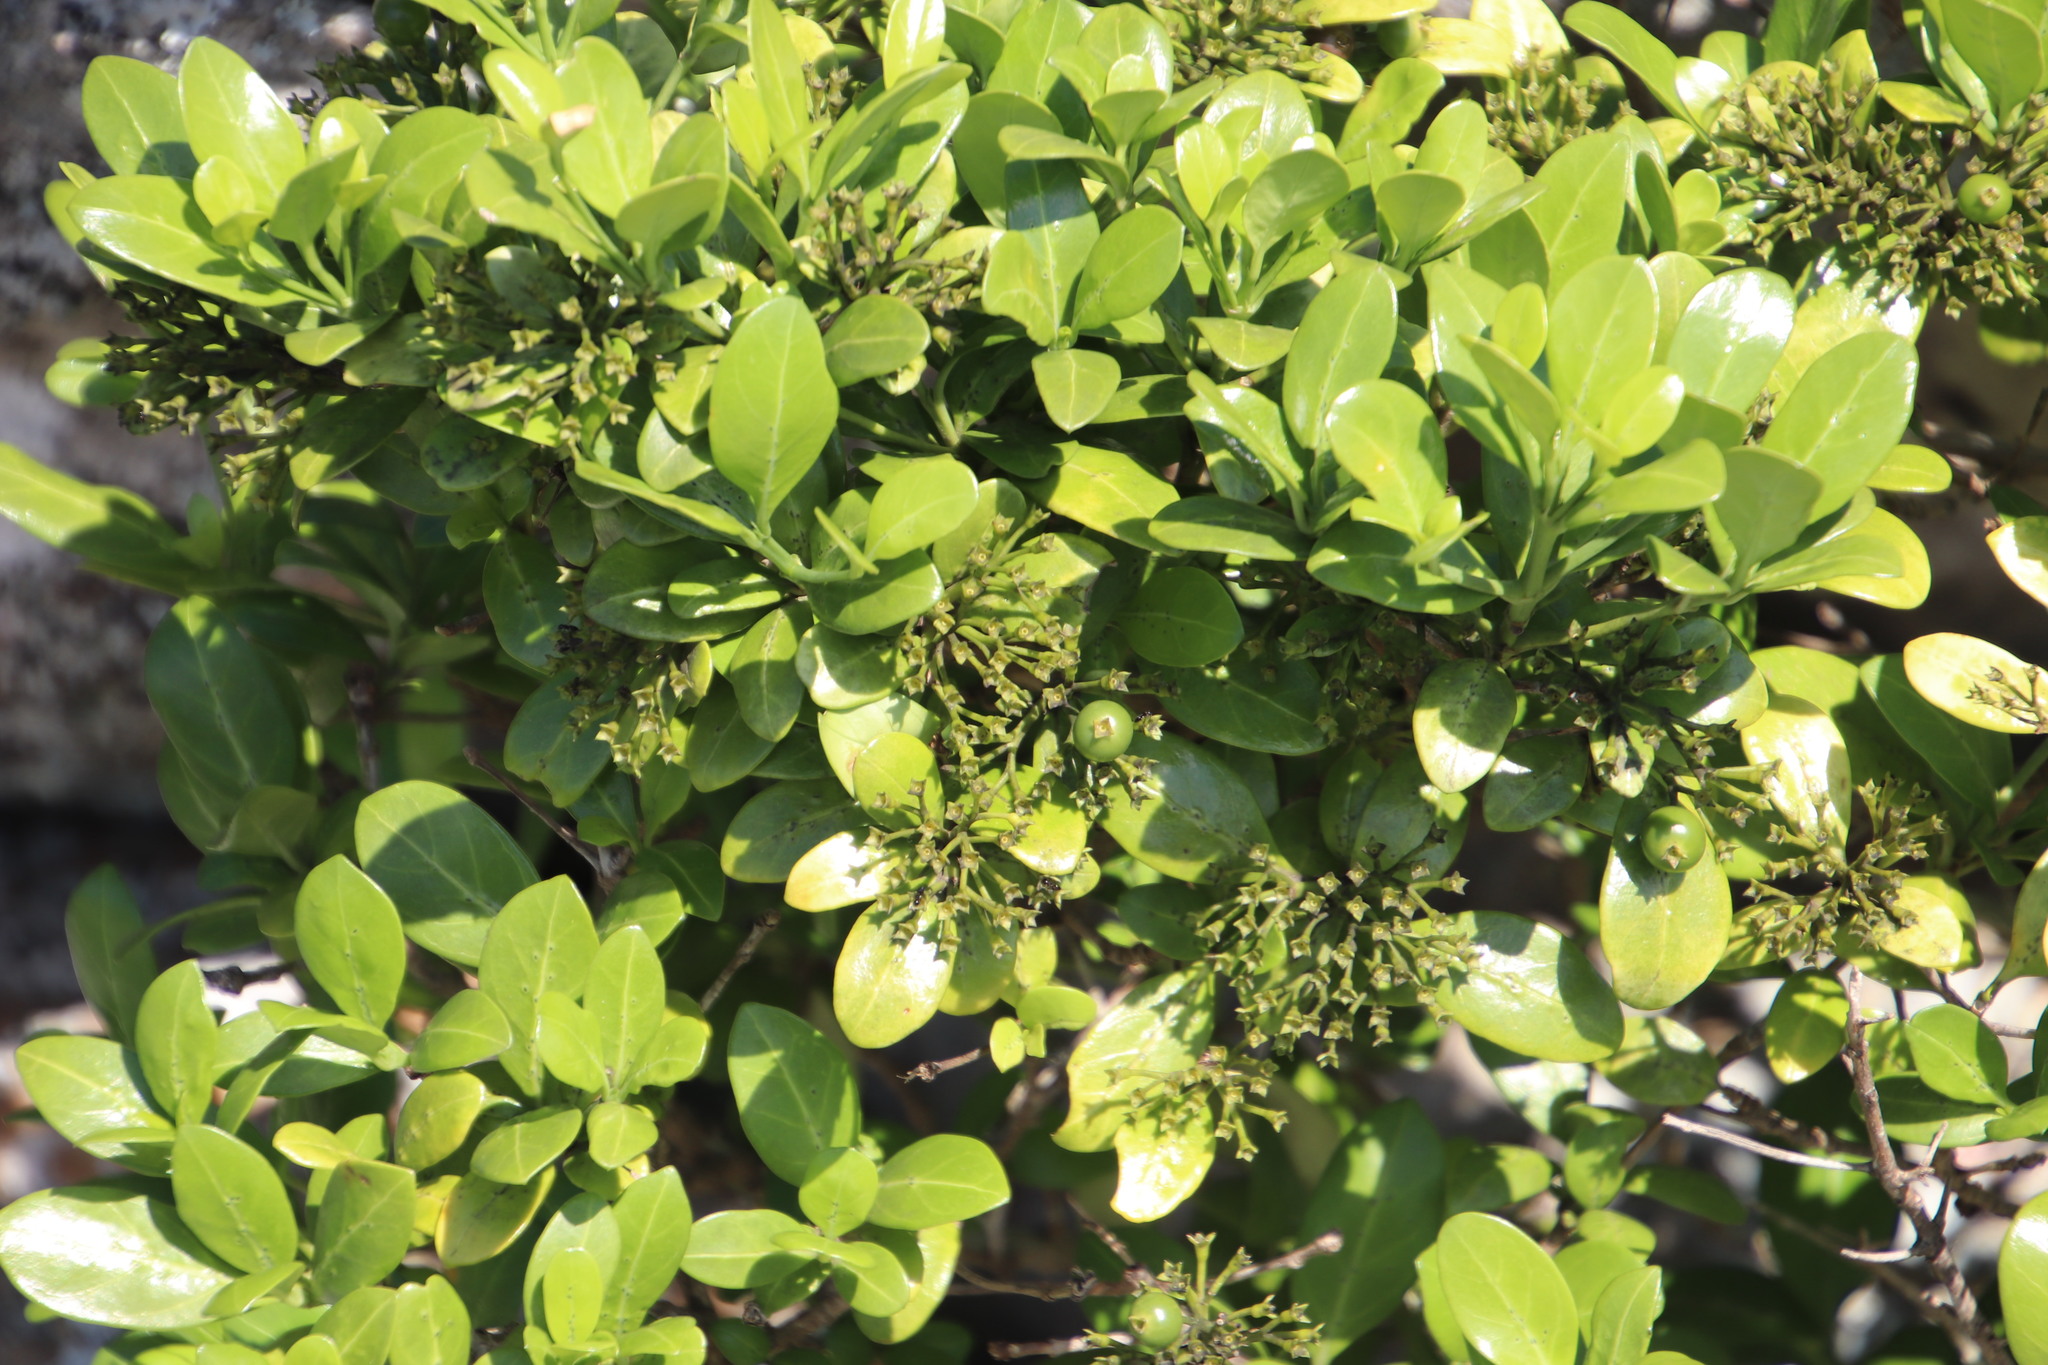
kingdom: Plantae
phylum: Tracheophyta
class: Magnoliopsida
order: Gentianales
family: Rubiaceae
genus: Psydrax
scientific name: Psydrax locuples
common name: Sand quar
